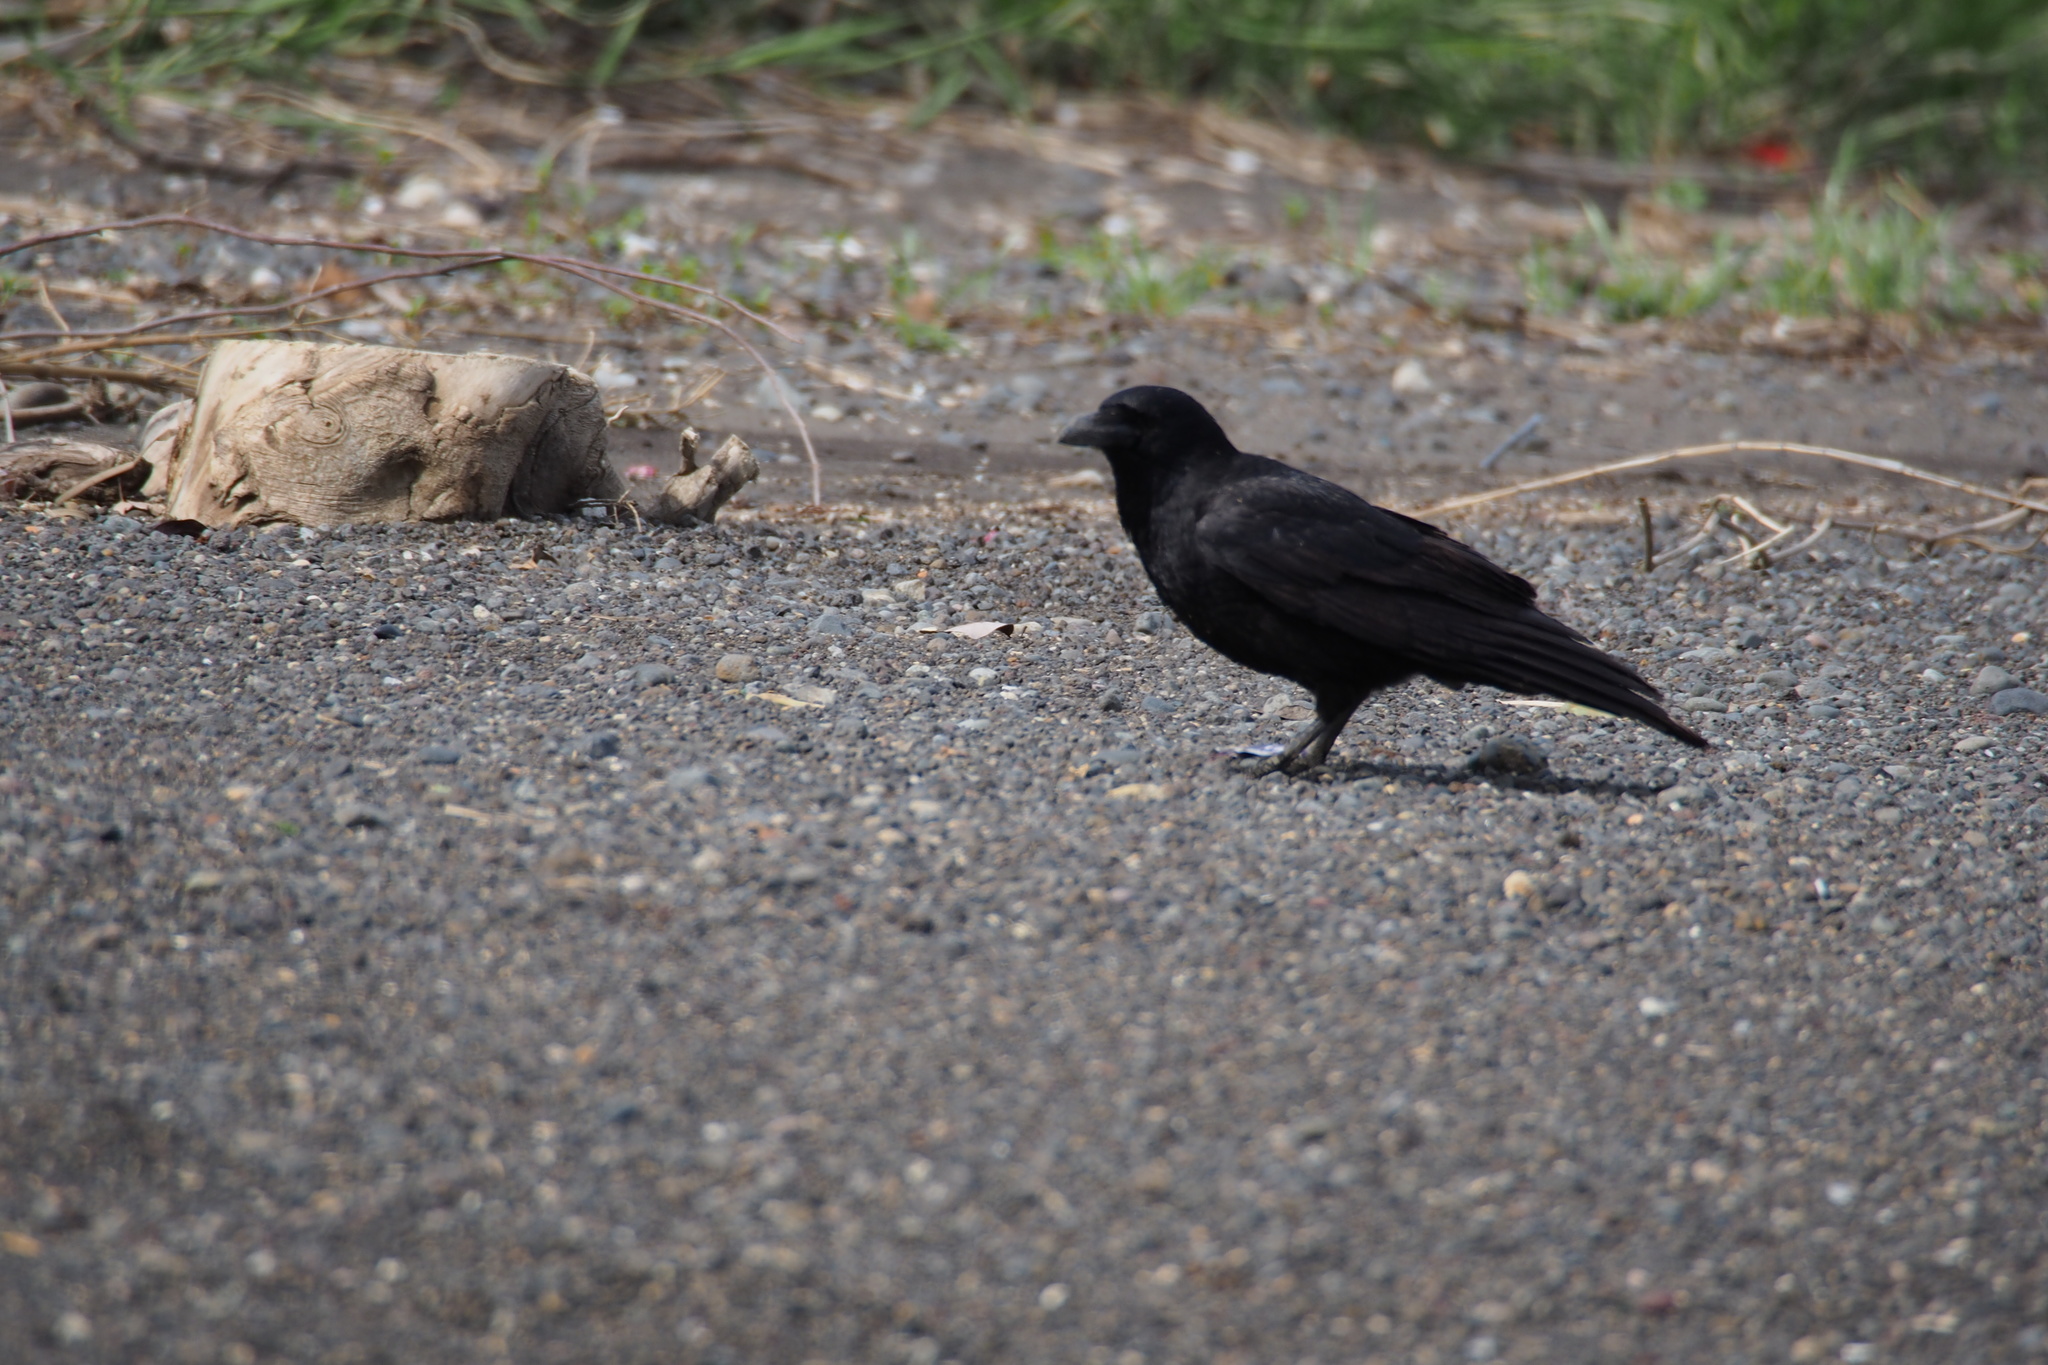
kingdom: Animalia
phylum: Chordata
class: Aves
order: Passeriformes
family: Corvidae
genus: Corvus
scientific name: Corvus corone
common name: Carrion crow
